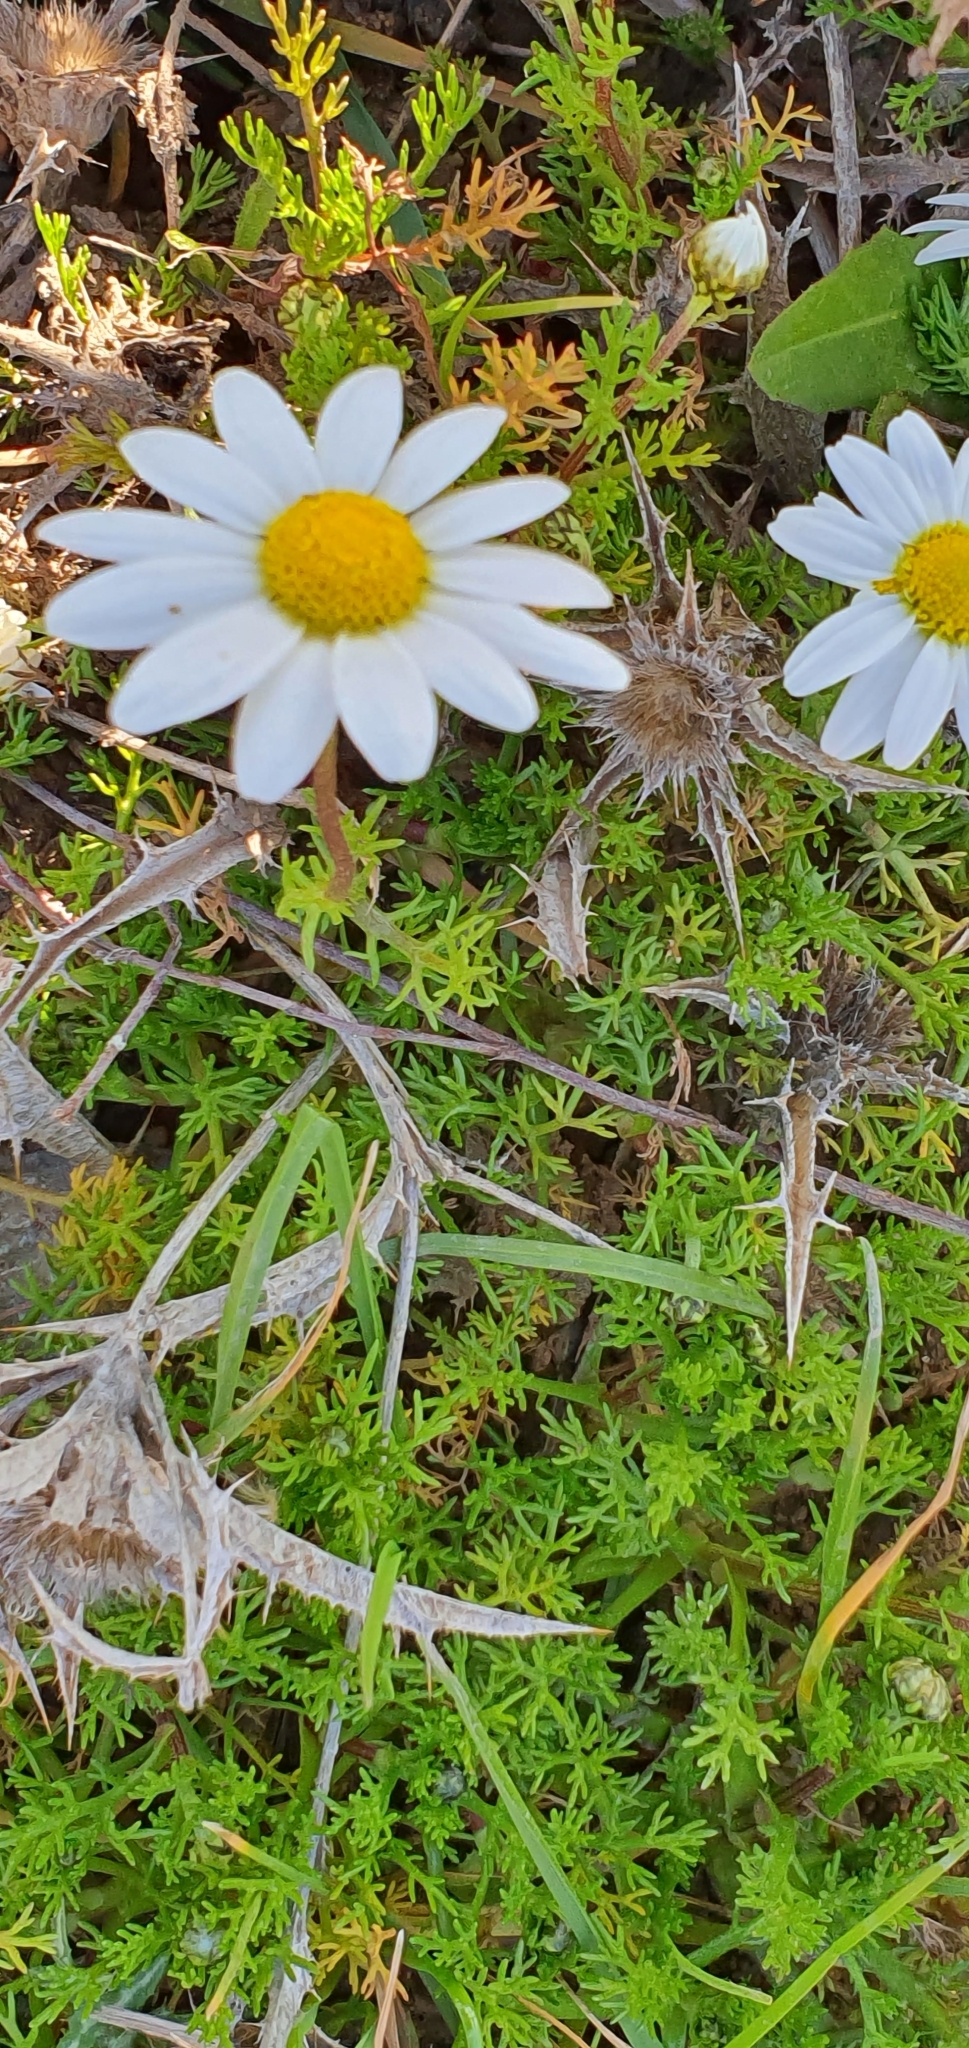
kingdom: Plantae
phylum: Tracheophyta
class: Magnoliopsida
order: Asterales
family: Asteraceae
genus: Chamaemelum
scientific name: Chamaemelum fuscatum
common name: Chamomile
